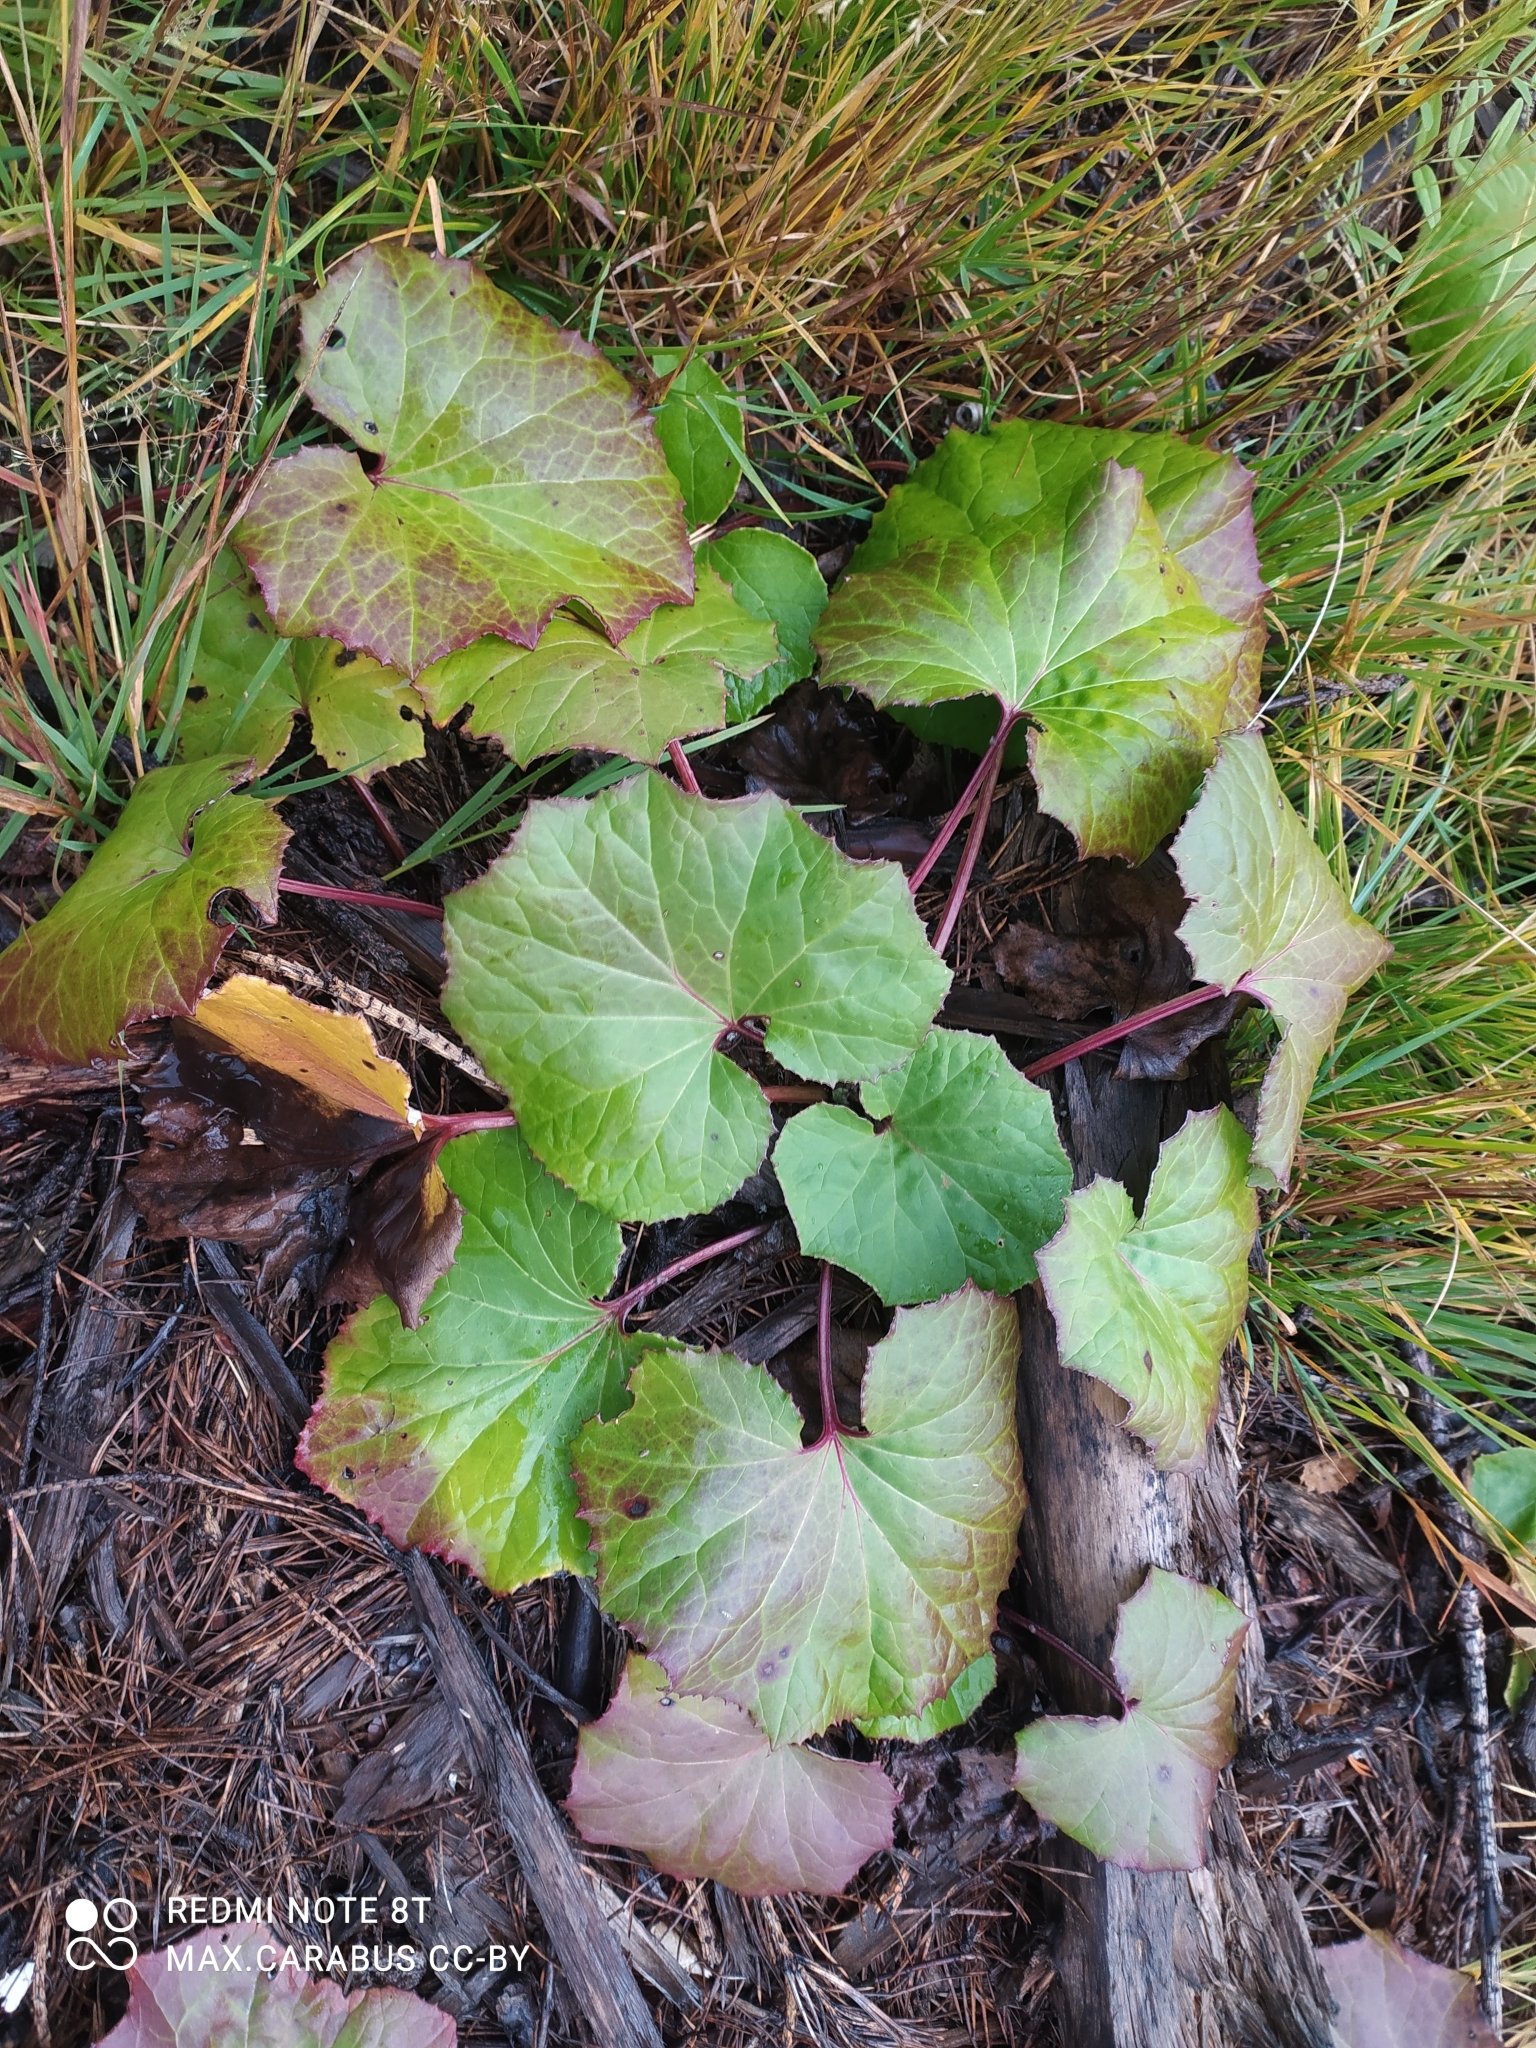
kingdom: Plantae
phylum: Tracheophyta
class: Magnoliopsida
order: Asterales
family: Asteraceae
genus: Tussilago
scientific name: Tussilago farfara
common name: Coltsfoot
